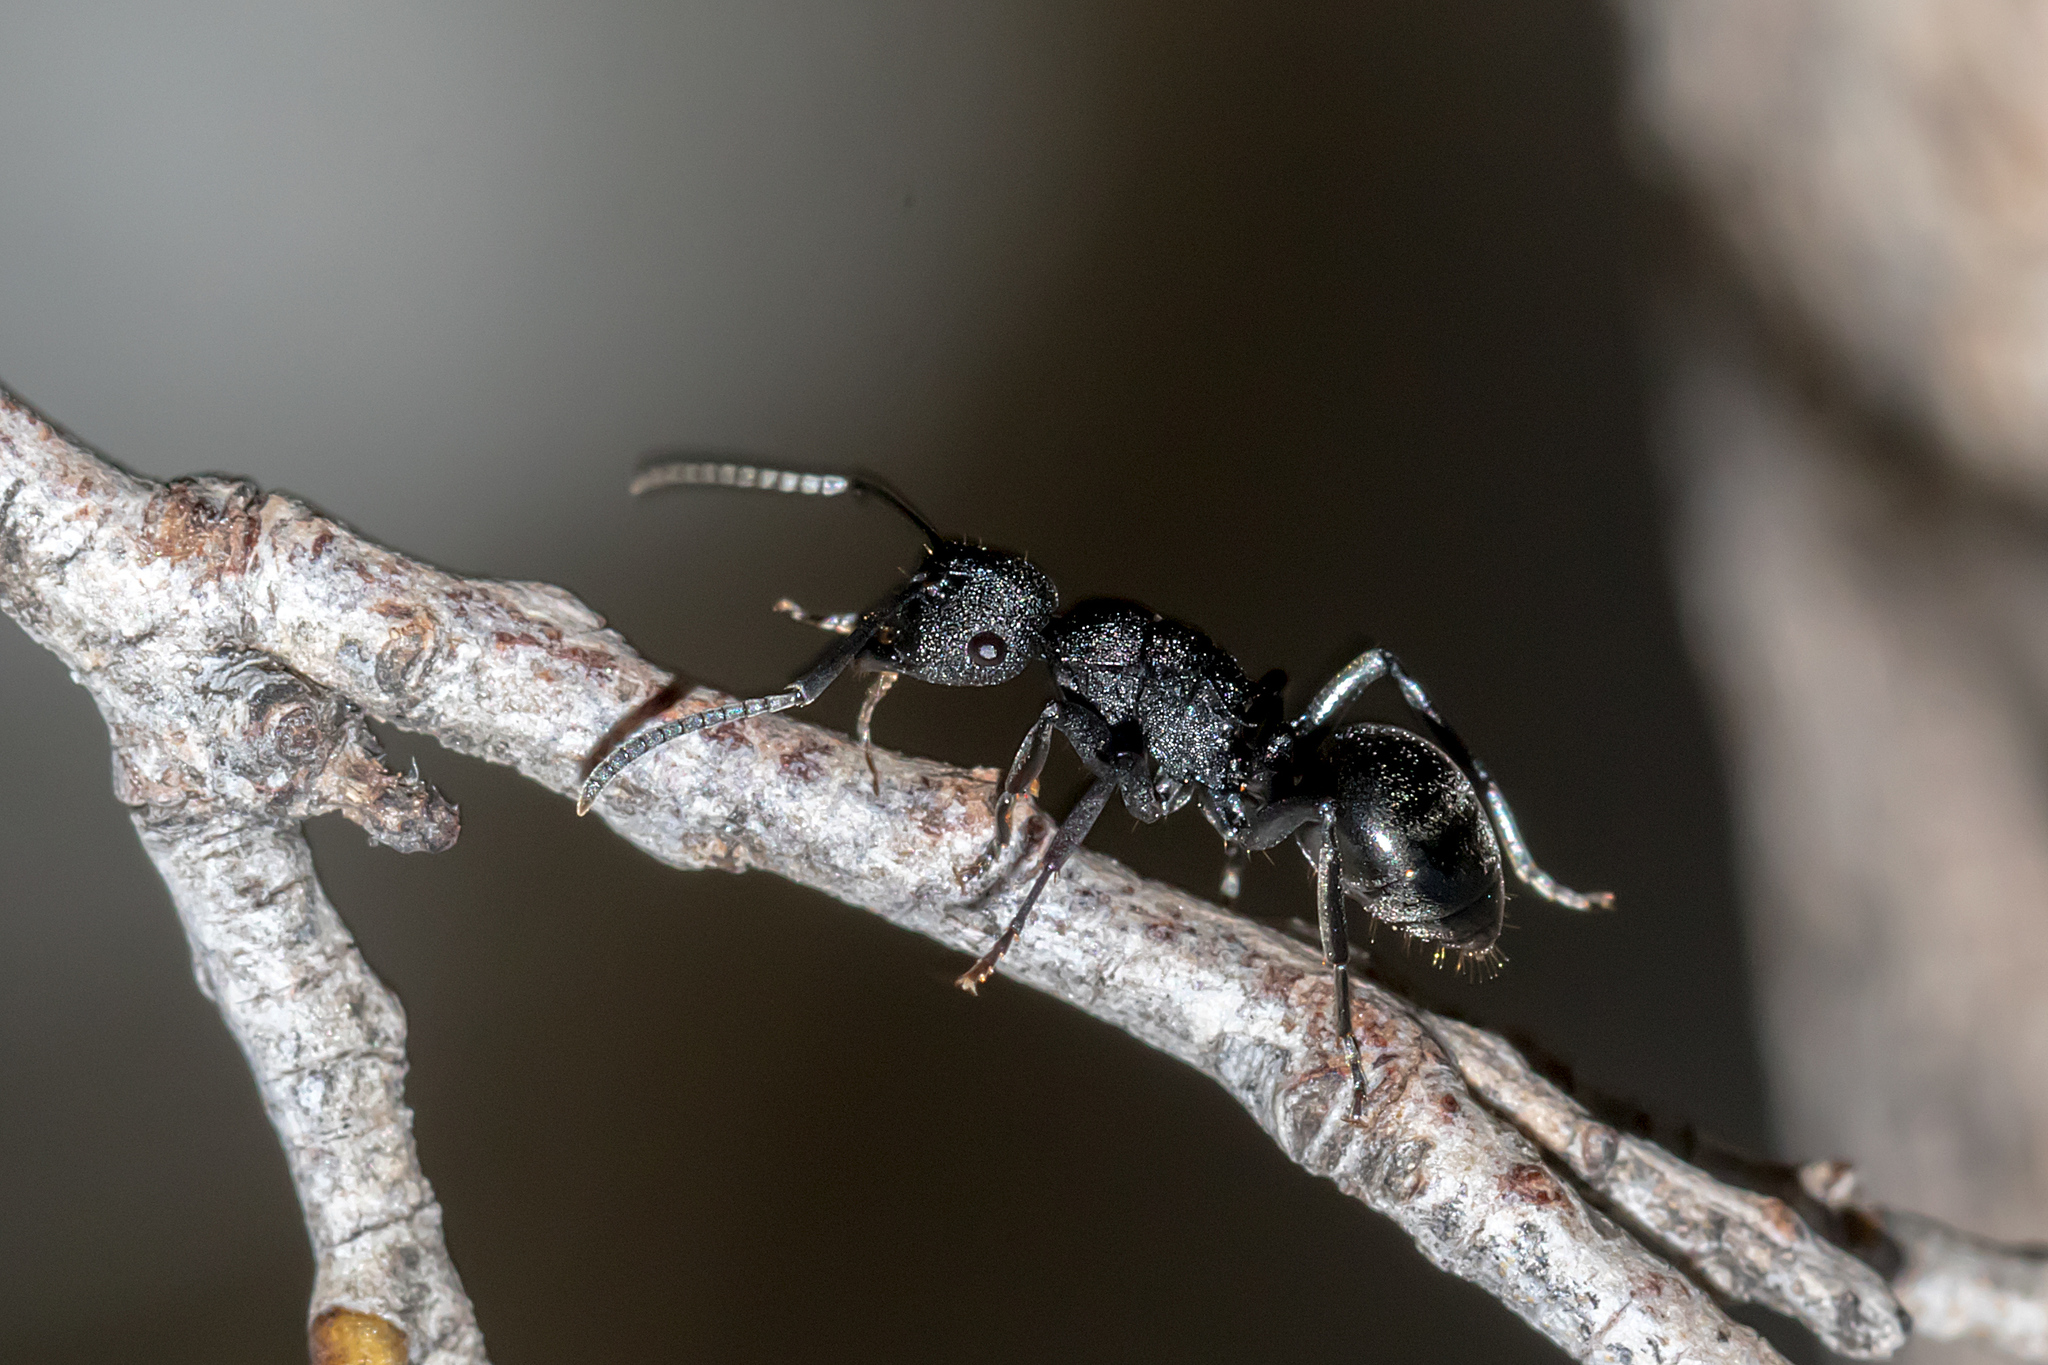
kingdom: Animalia
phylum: Arthropoda
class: Insecta
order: Hymenoptera
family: Formicidae
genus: Polyrhachis
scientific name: Polyrhachis phryne
